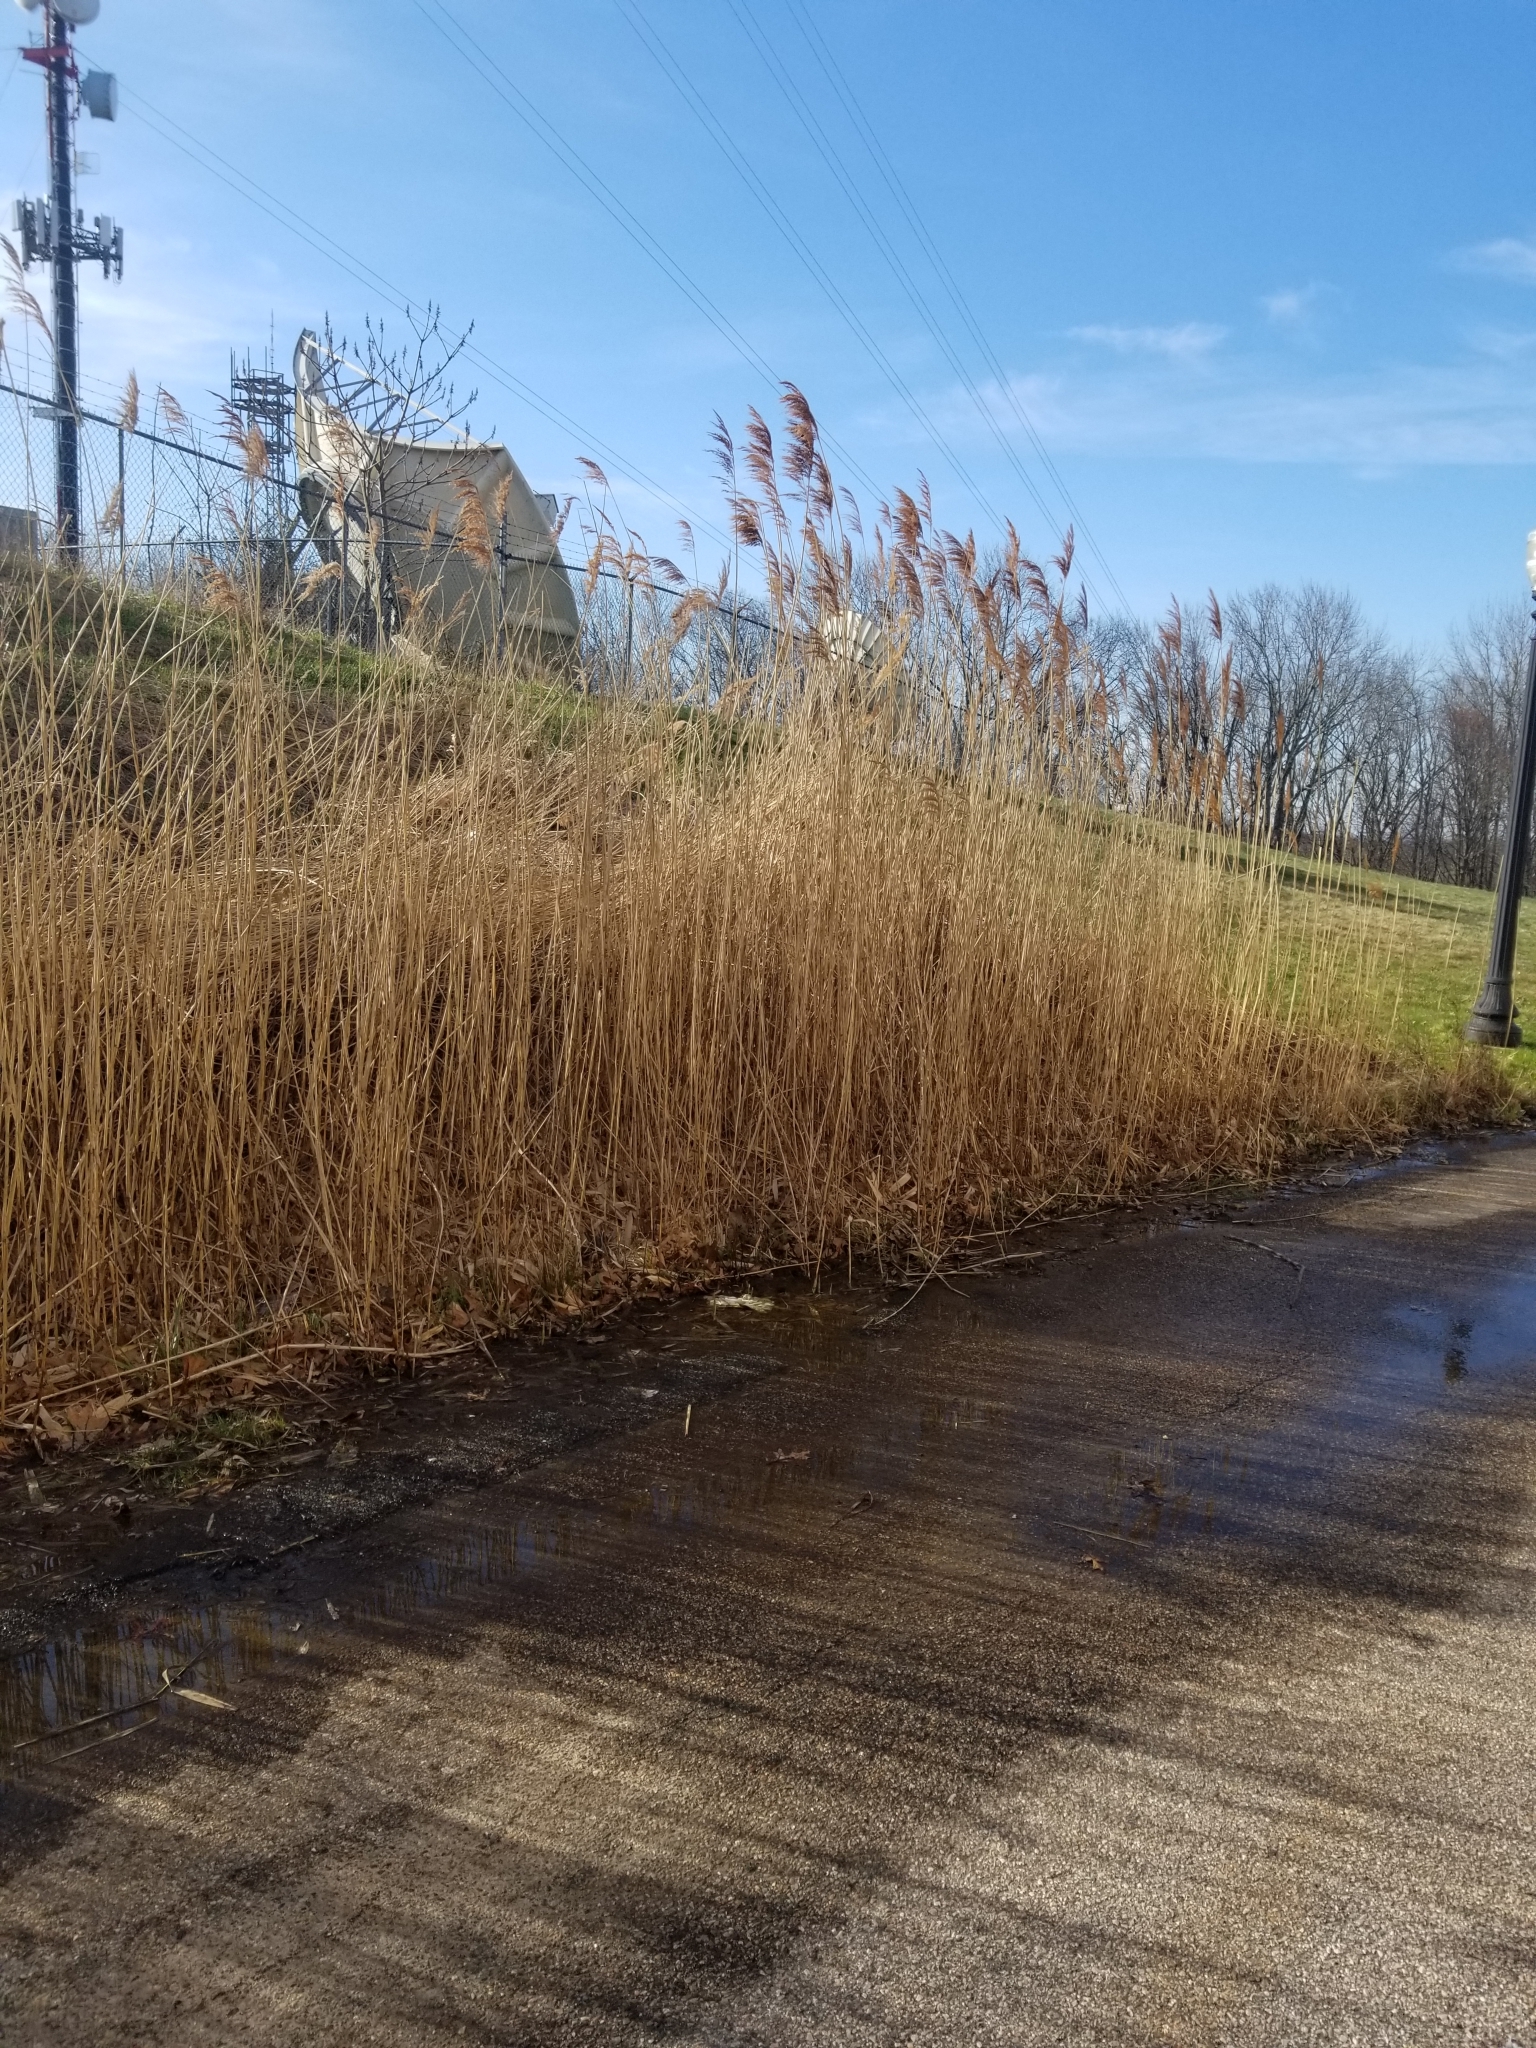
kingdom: Plantae
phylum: Tracheophyta
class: Liliopsida
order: Poales
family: Poaceae
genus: Phragmites
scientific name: Phragmites australis
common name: Common reed
